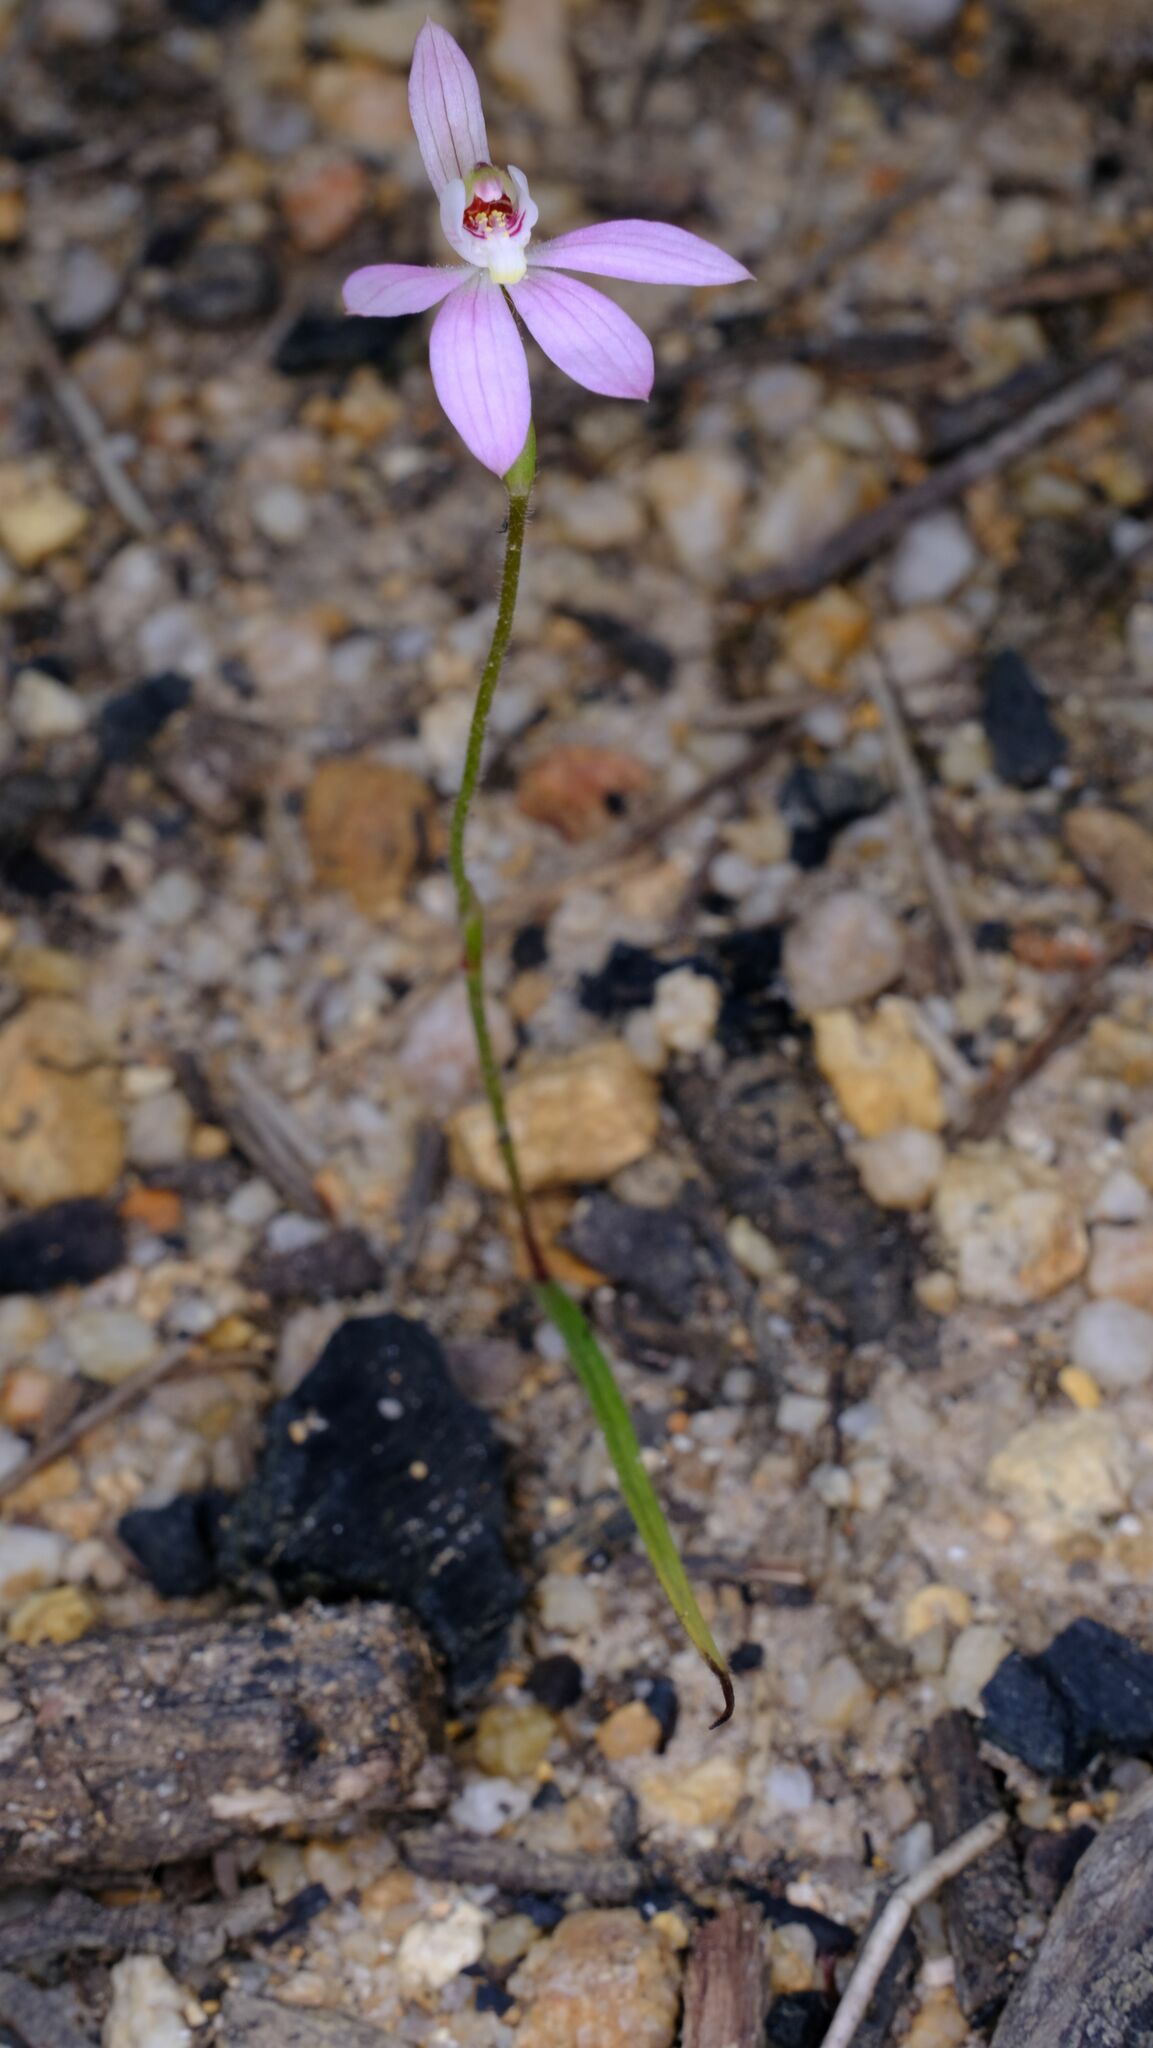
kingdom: Plantae
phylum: Tracheophyta
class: Liliopsida
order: Asparagales
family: Orchidaceae
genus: Caladenia
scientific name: Caladenia carnea
